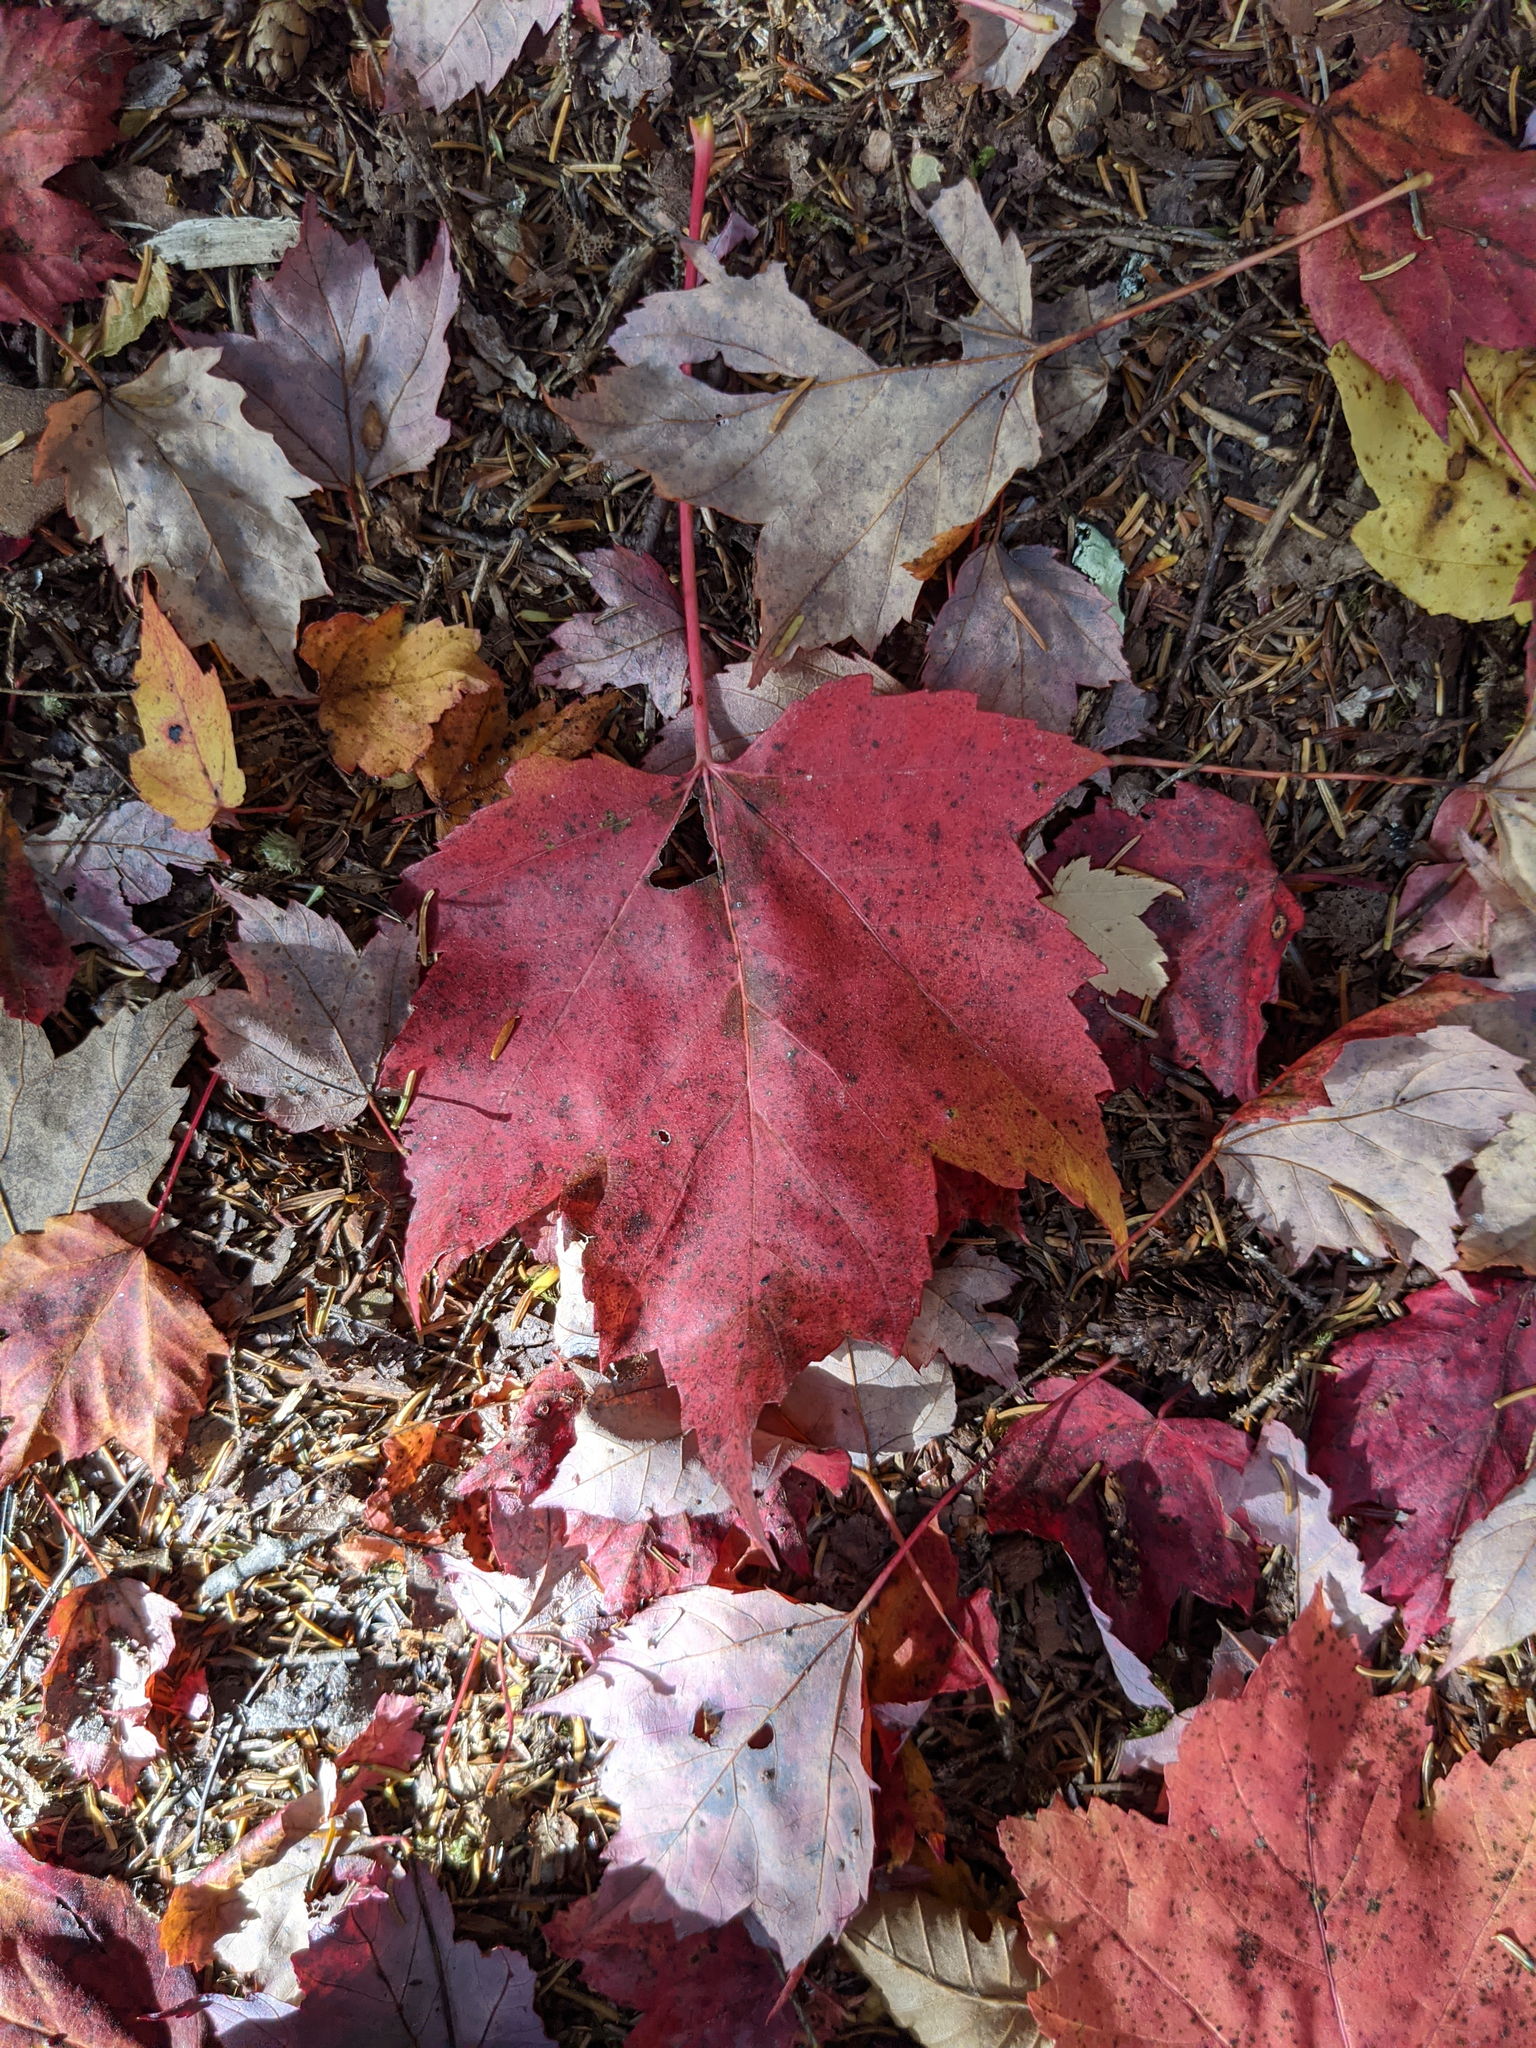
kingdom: Plantae
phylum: Tracheophyta
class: Magnoliopsida
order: Sapindales
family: Sapindaceae
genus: Acer
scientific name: Acer rubrum
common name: Red maple
